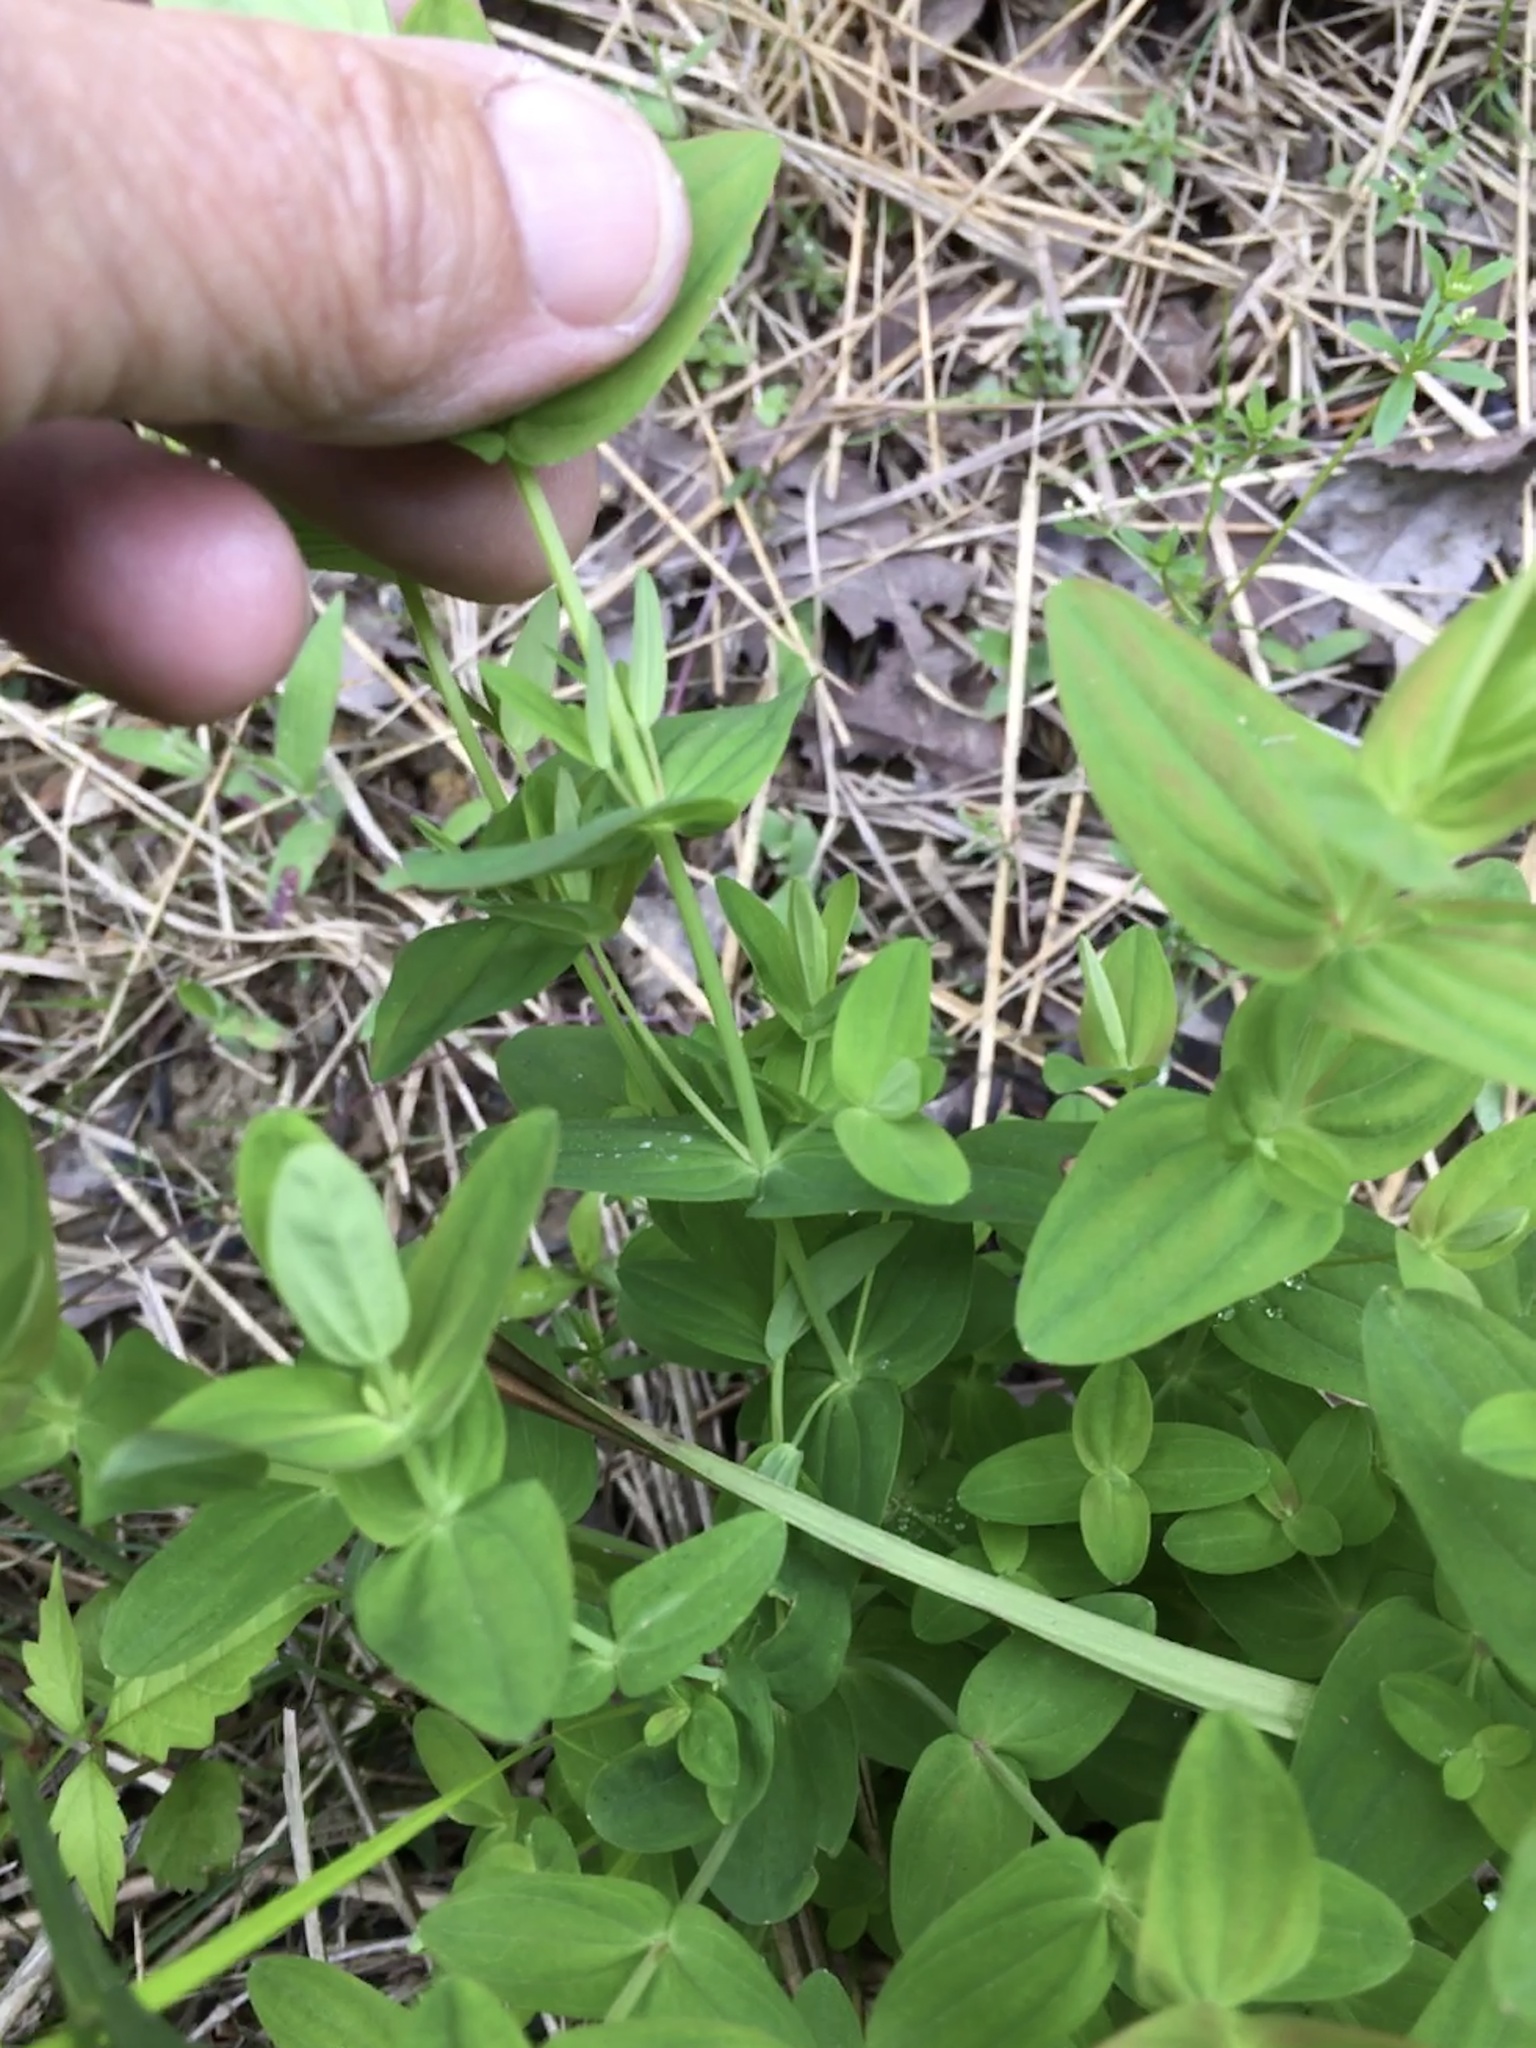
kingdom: Plantae
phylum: Tracheophyta
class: Magnoliopsida
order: Malpighiales
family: Hypericaceae
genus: Hypericum
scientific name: Hypericum mutilum
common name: Dwarf st. john's-wort
